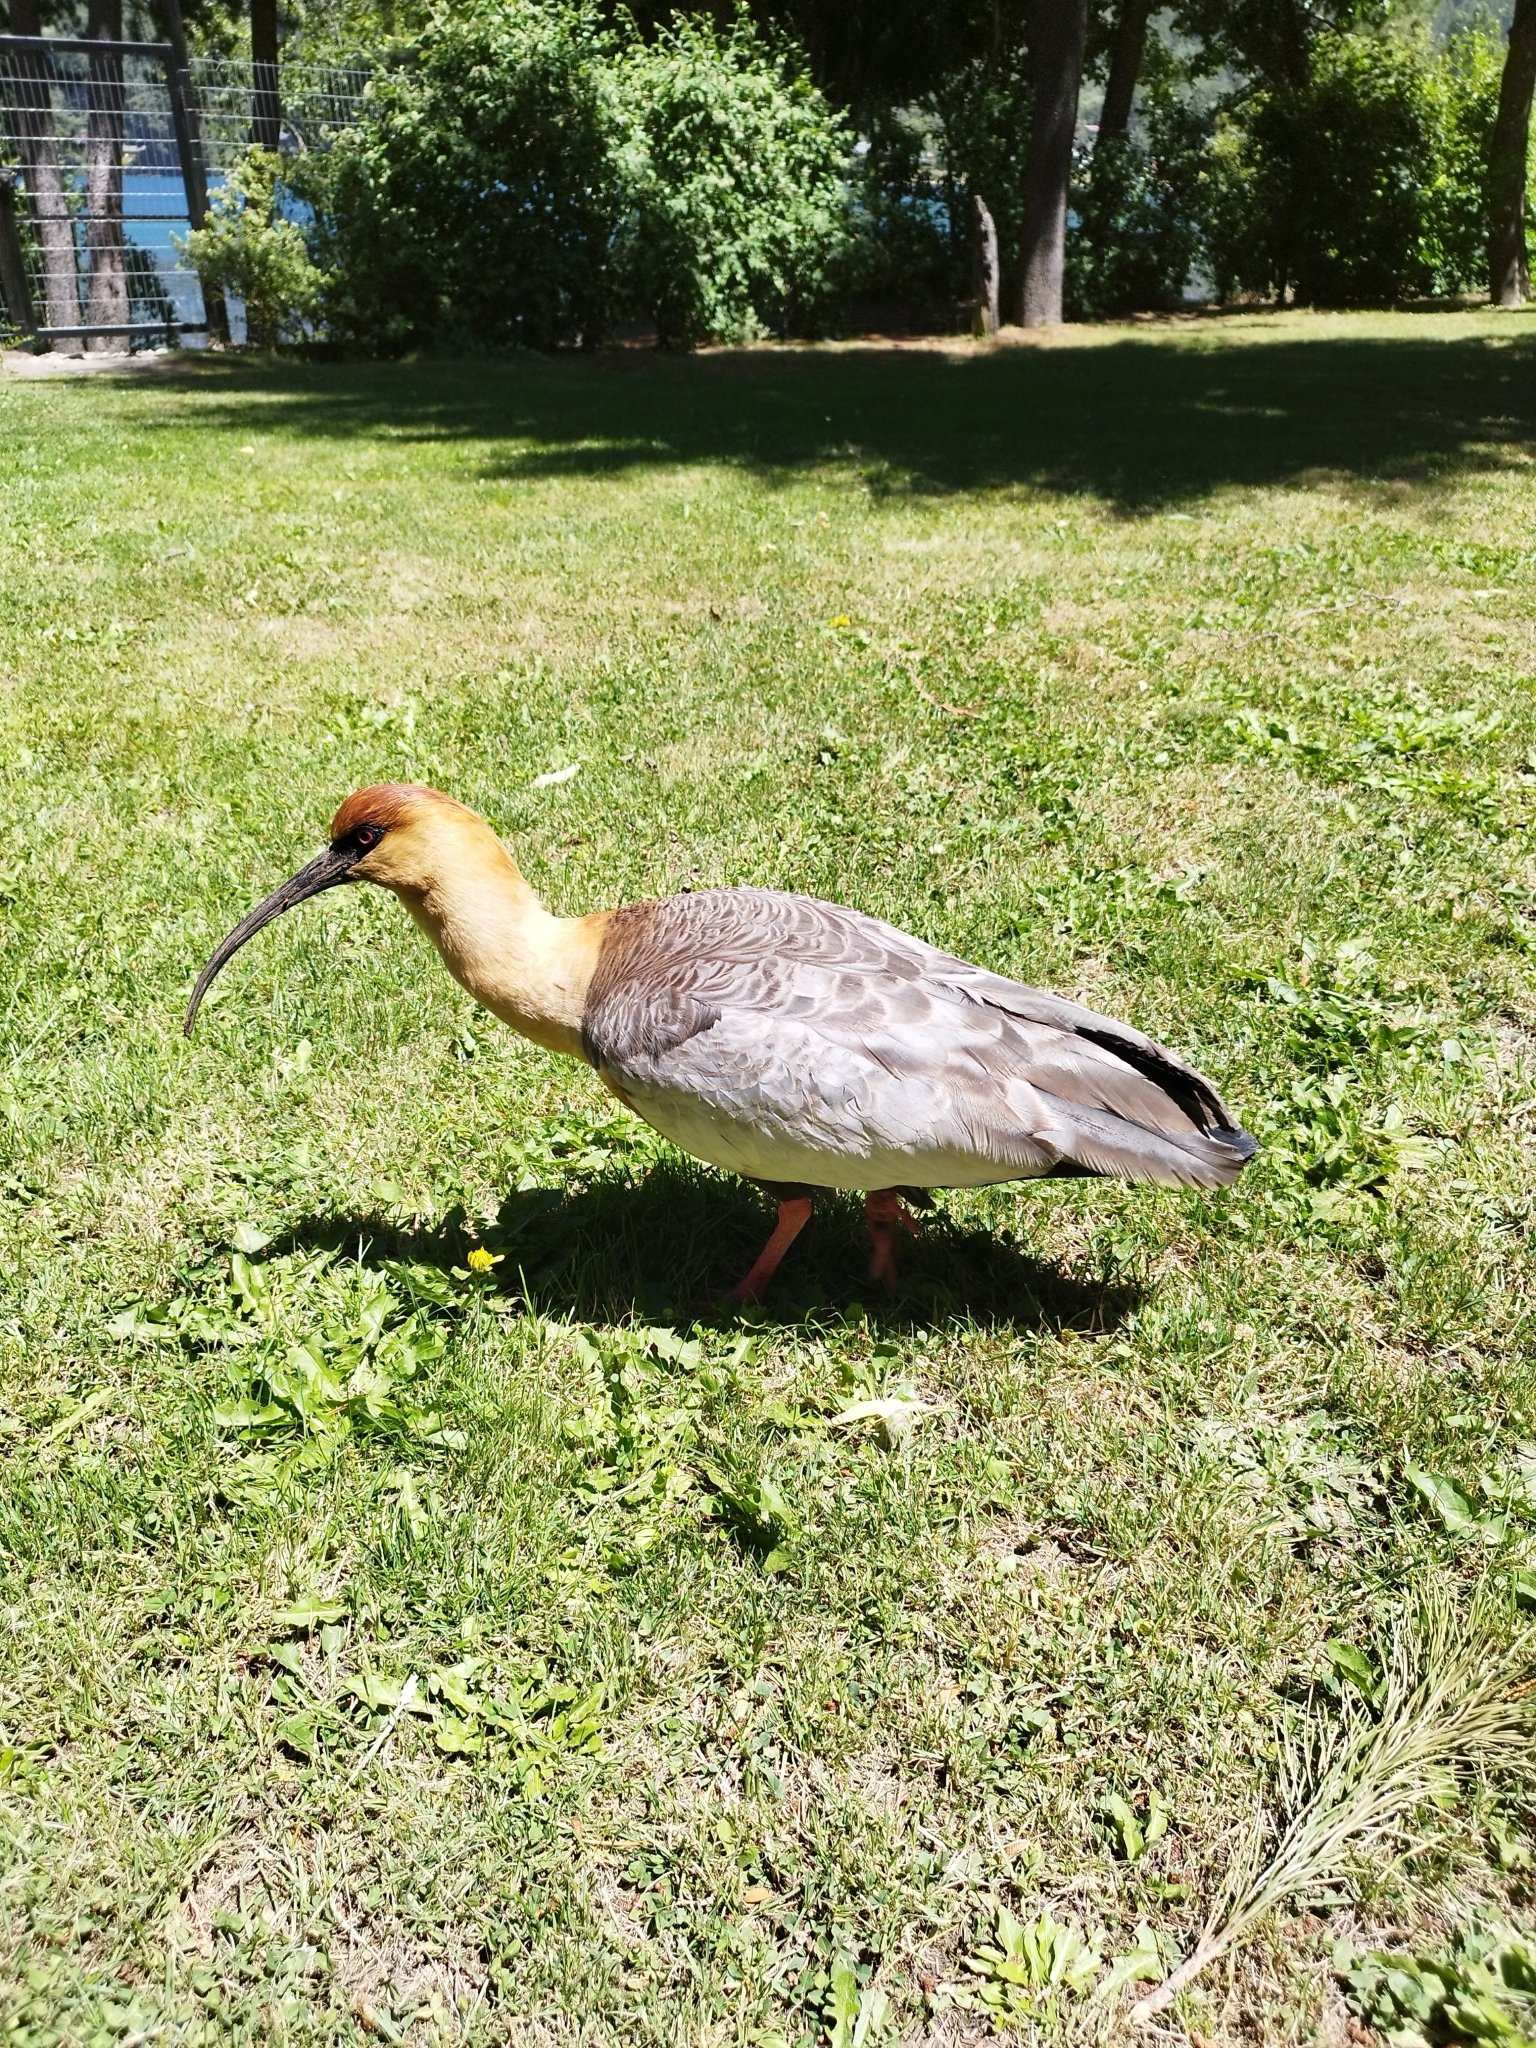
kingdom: Animalia
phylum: Chordata
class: Aves
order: Pelecaniformes
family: Threskiornithidae
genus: Theristicus
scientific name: Theristicus melanopis
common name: Black-faced ibis
